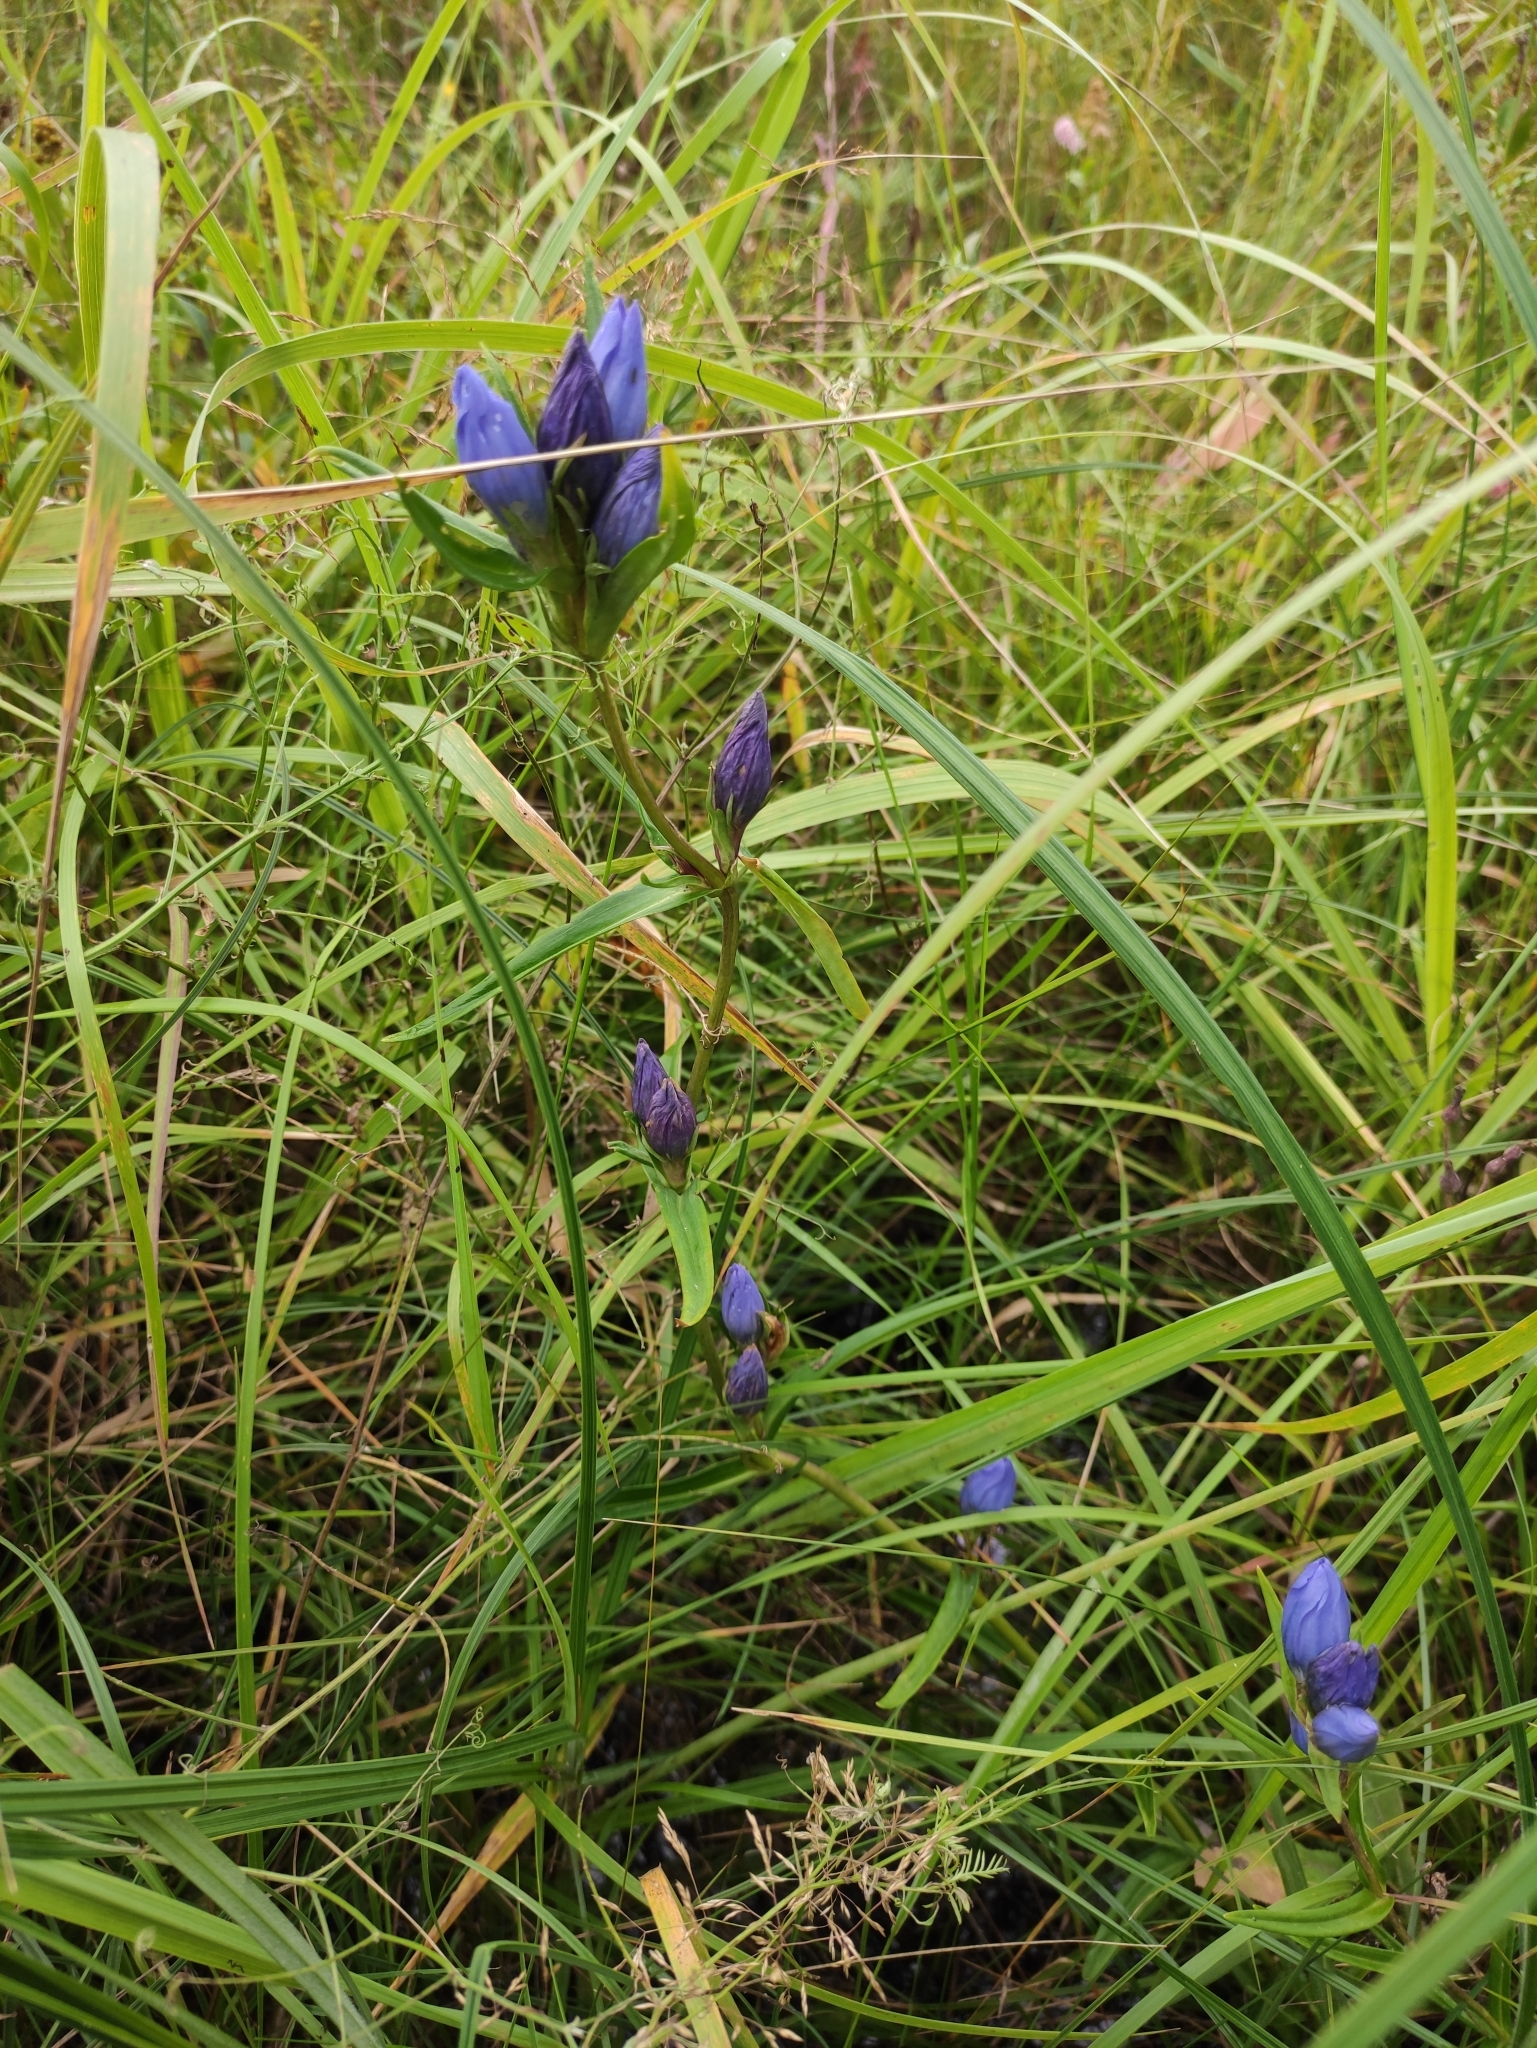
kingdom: Plantae
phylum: Tracheophyta
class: Magnoliopsida
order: Gentianales
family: Gentianaceae
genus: Gentiana
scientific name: Gentiana decumbens
